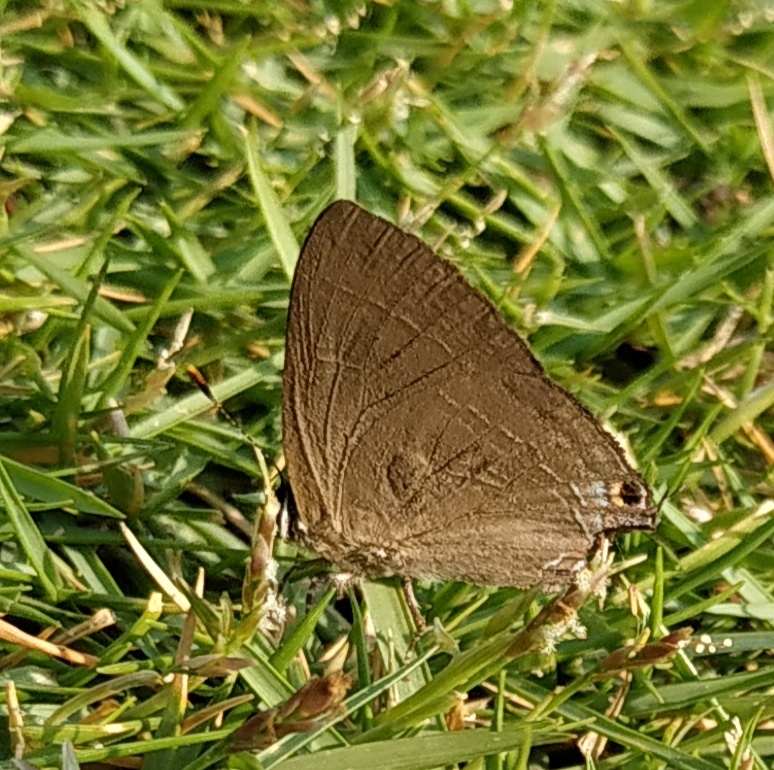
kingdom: Animalia
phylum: Arthropoda
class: Insecta
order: Lepidoptera
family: Lycaenidae
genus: Rapala
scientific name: Rapala manea
